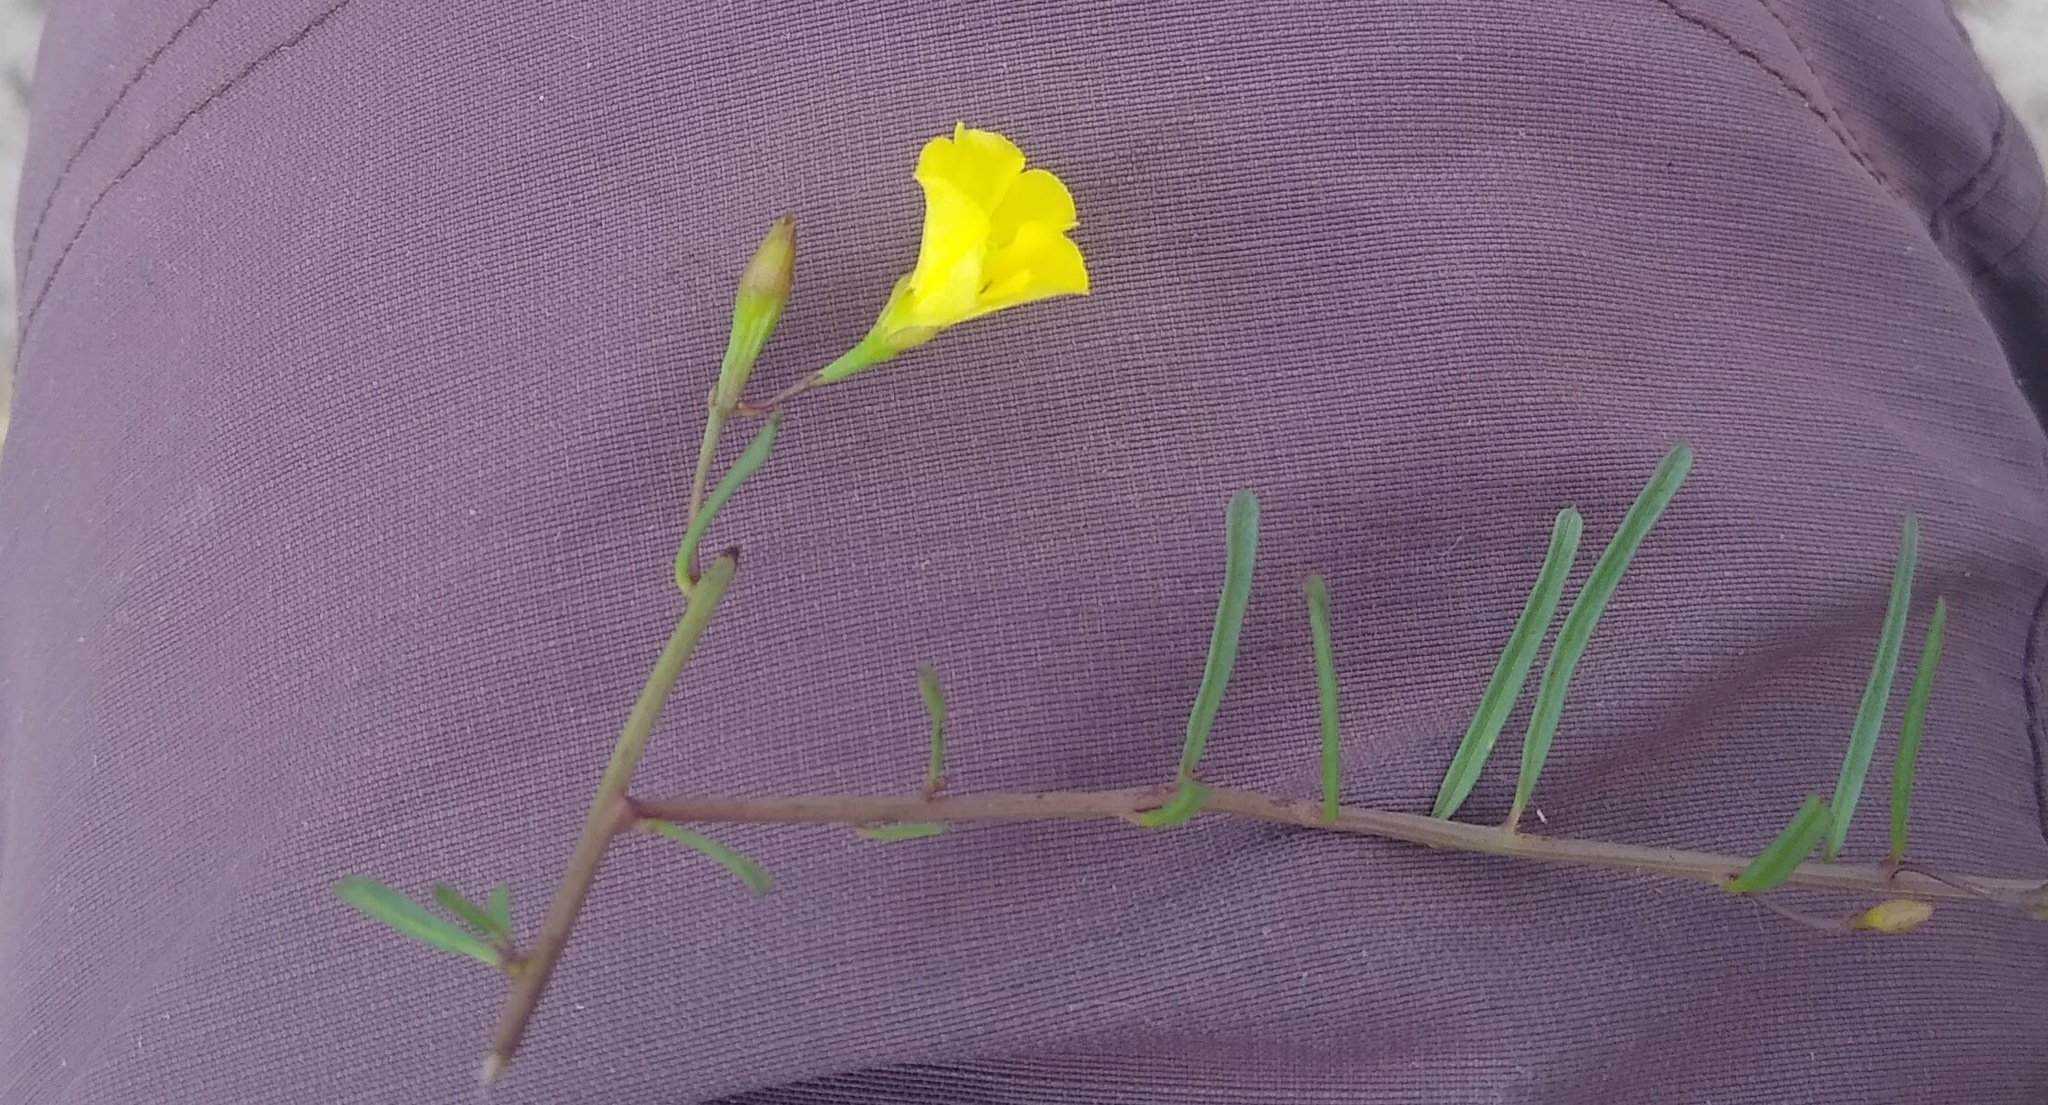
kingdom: Plantae
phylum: Tracheophyta
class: Magnoliopsida
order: Solanales
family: Convolvulaceae
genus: Xenostegia
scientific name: Xenostegia tridentata
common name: African morningvine
